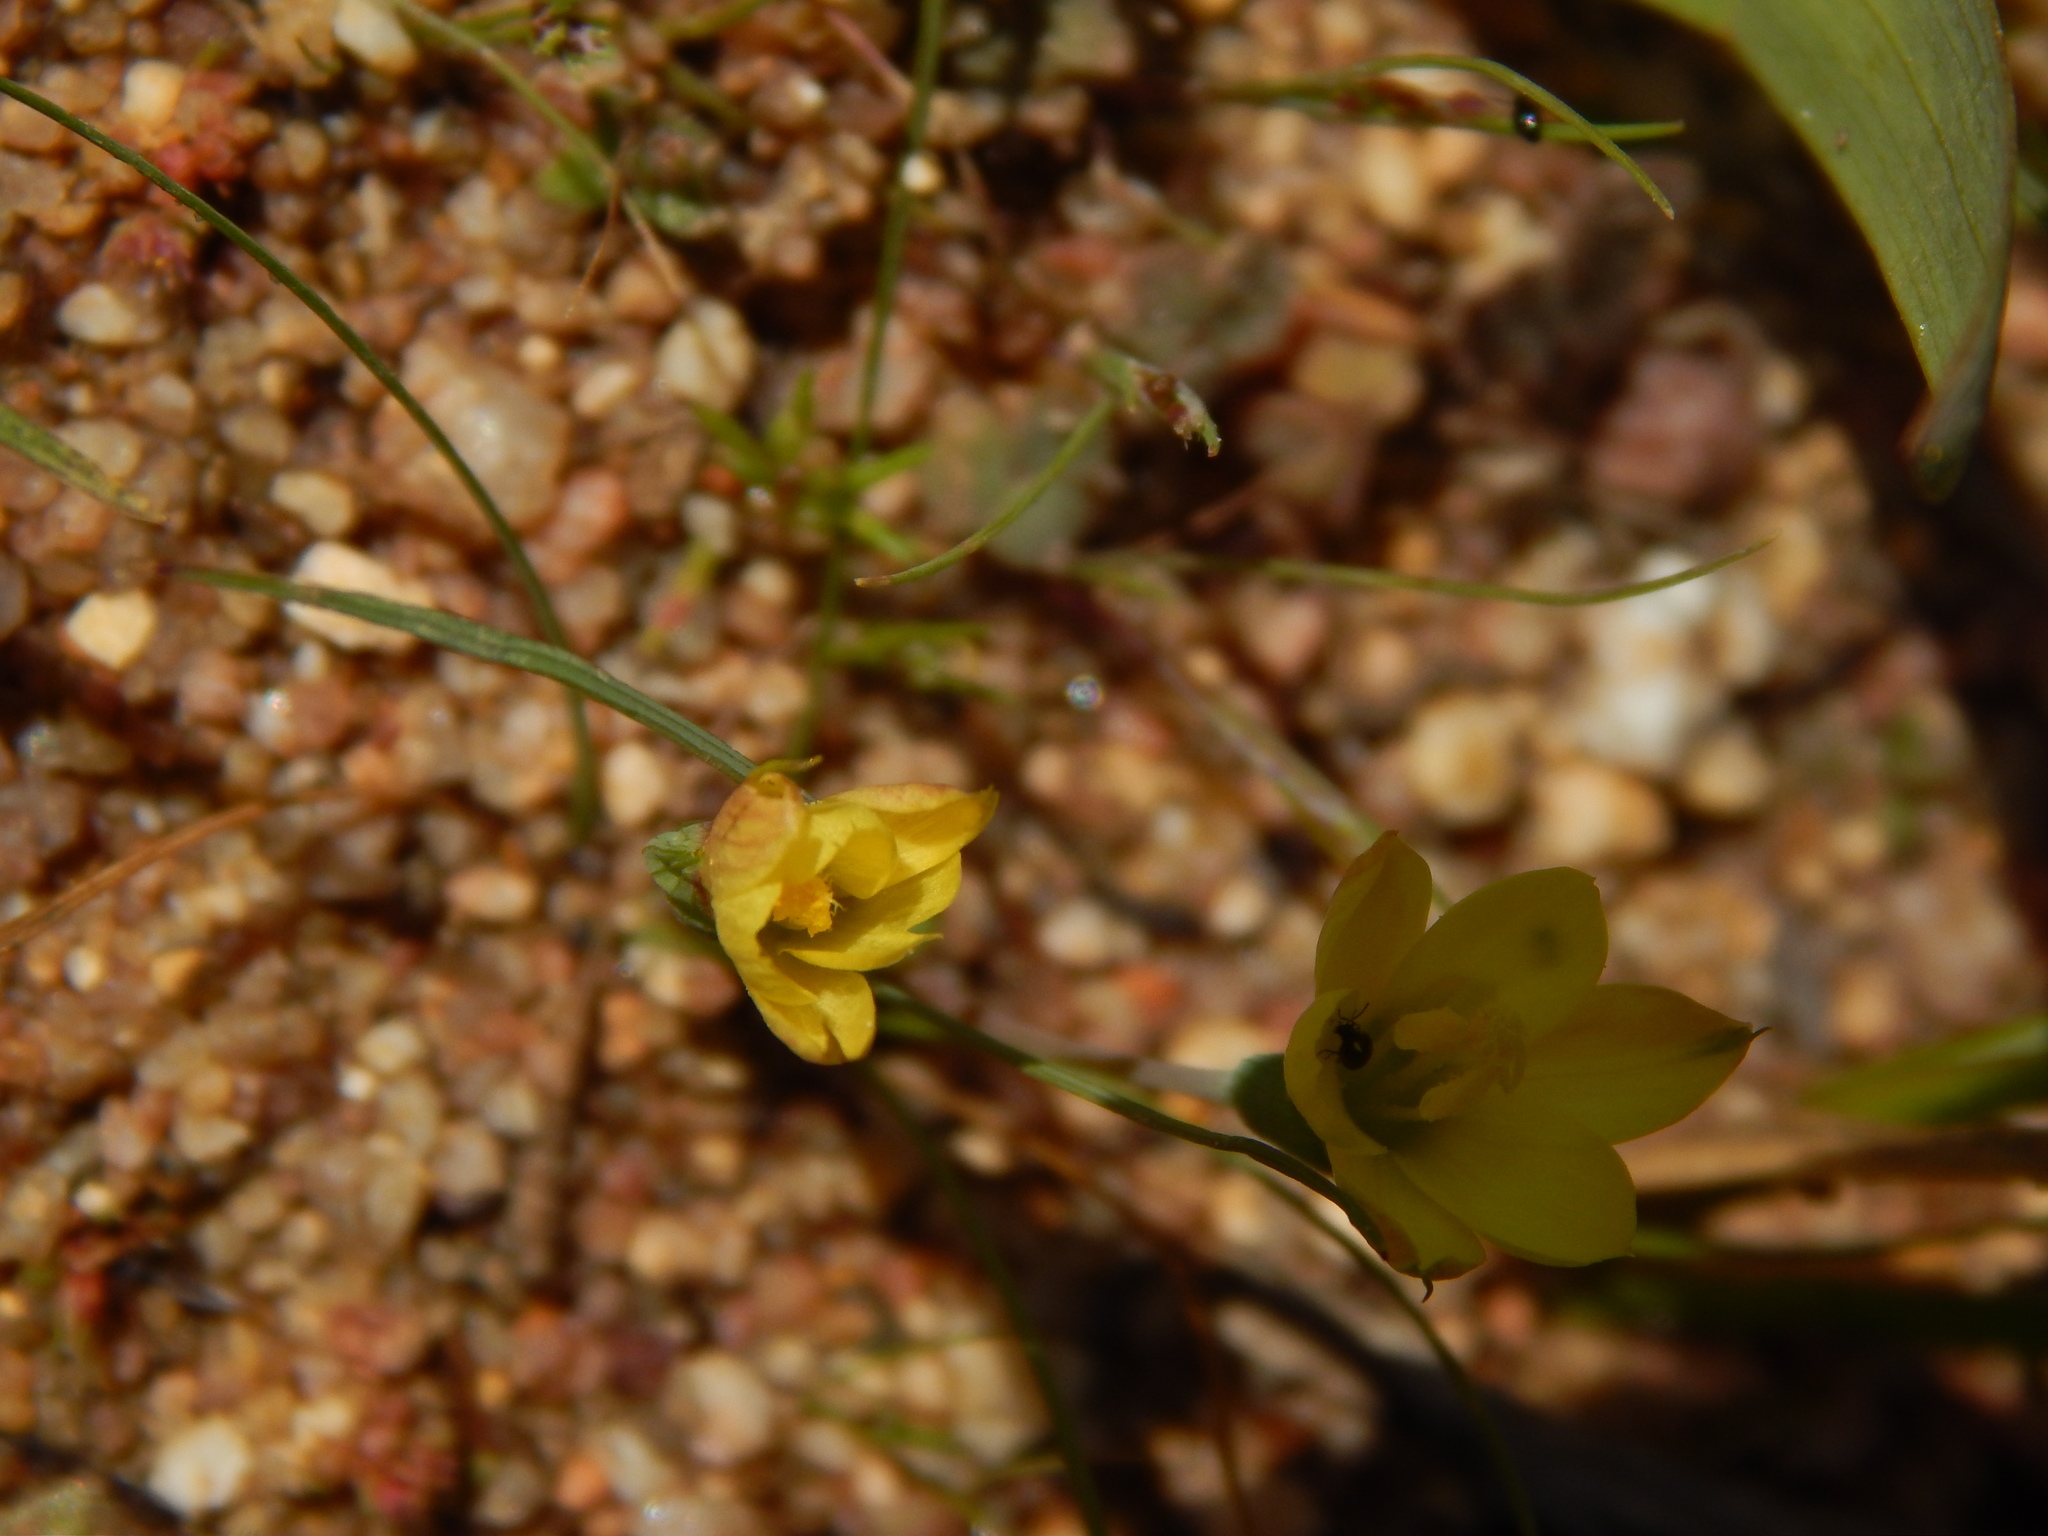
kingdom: Plantae
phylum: Tracheophyta
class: Liliopsida
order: Asparagales
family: Iridaceae
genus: Geissorhiza
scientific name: Geissorhiza platystigma
